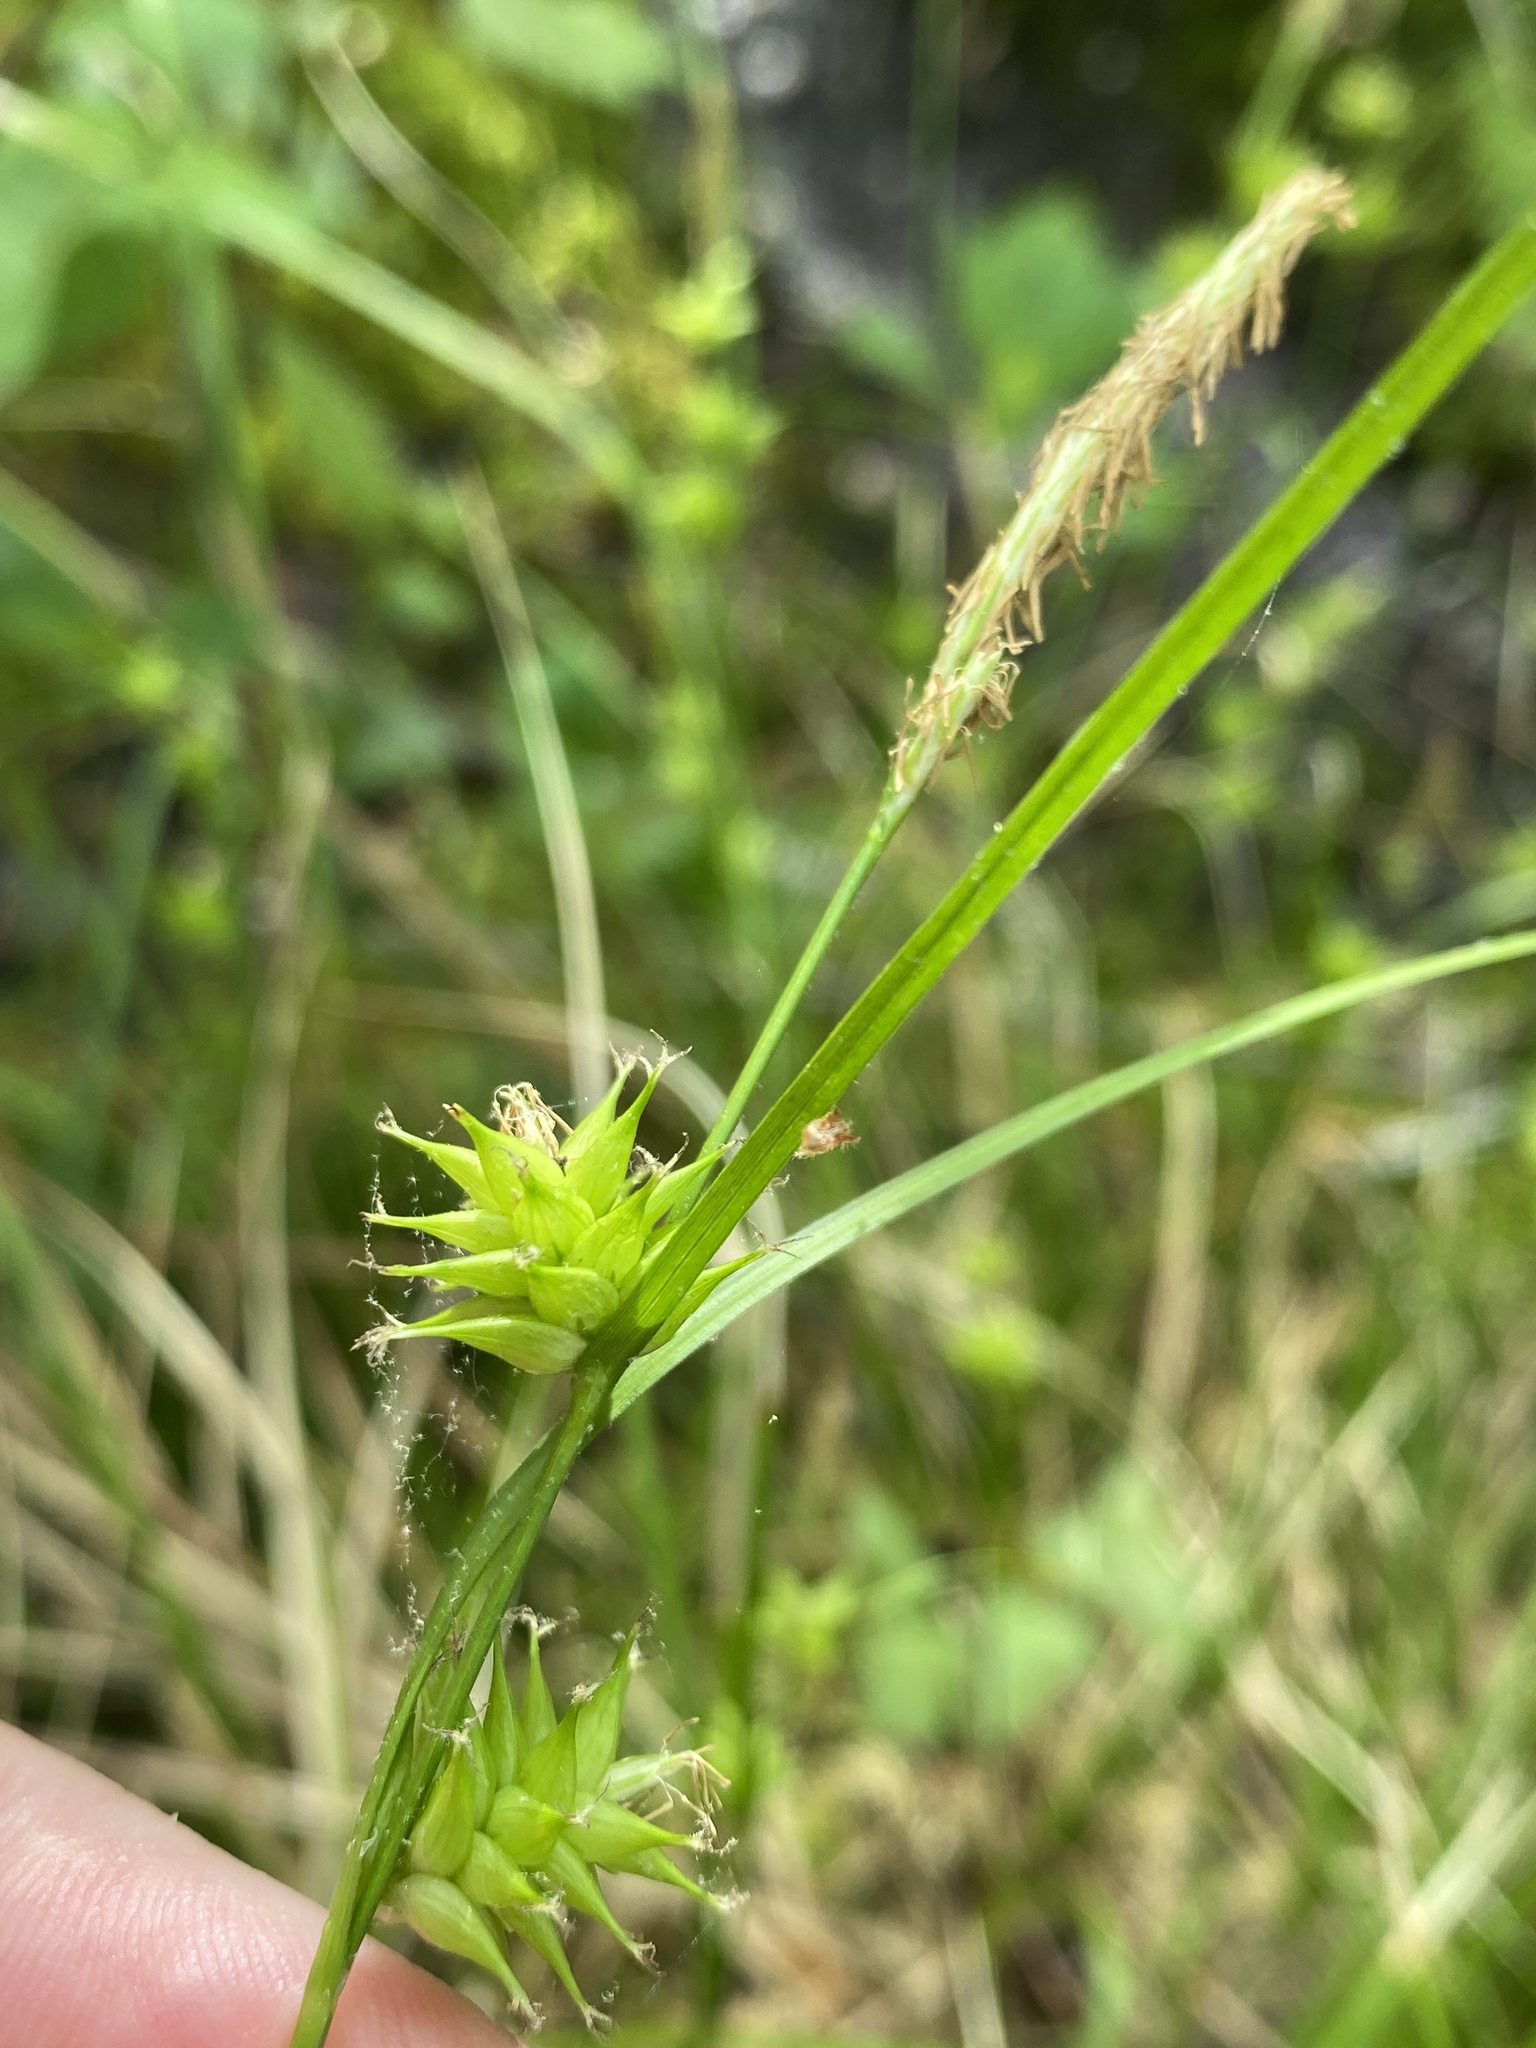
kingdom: Plantae
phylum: Tracheophyta
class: Liliopsida
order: Poales
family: Cyperaceae
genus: Carex
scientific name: Carex elliottii
